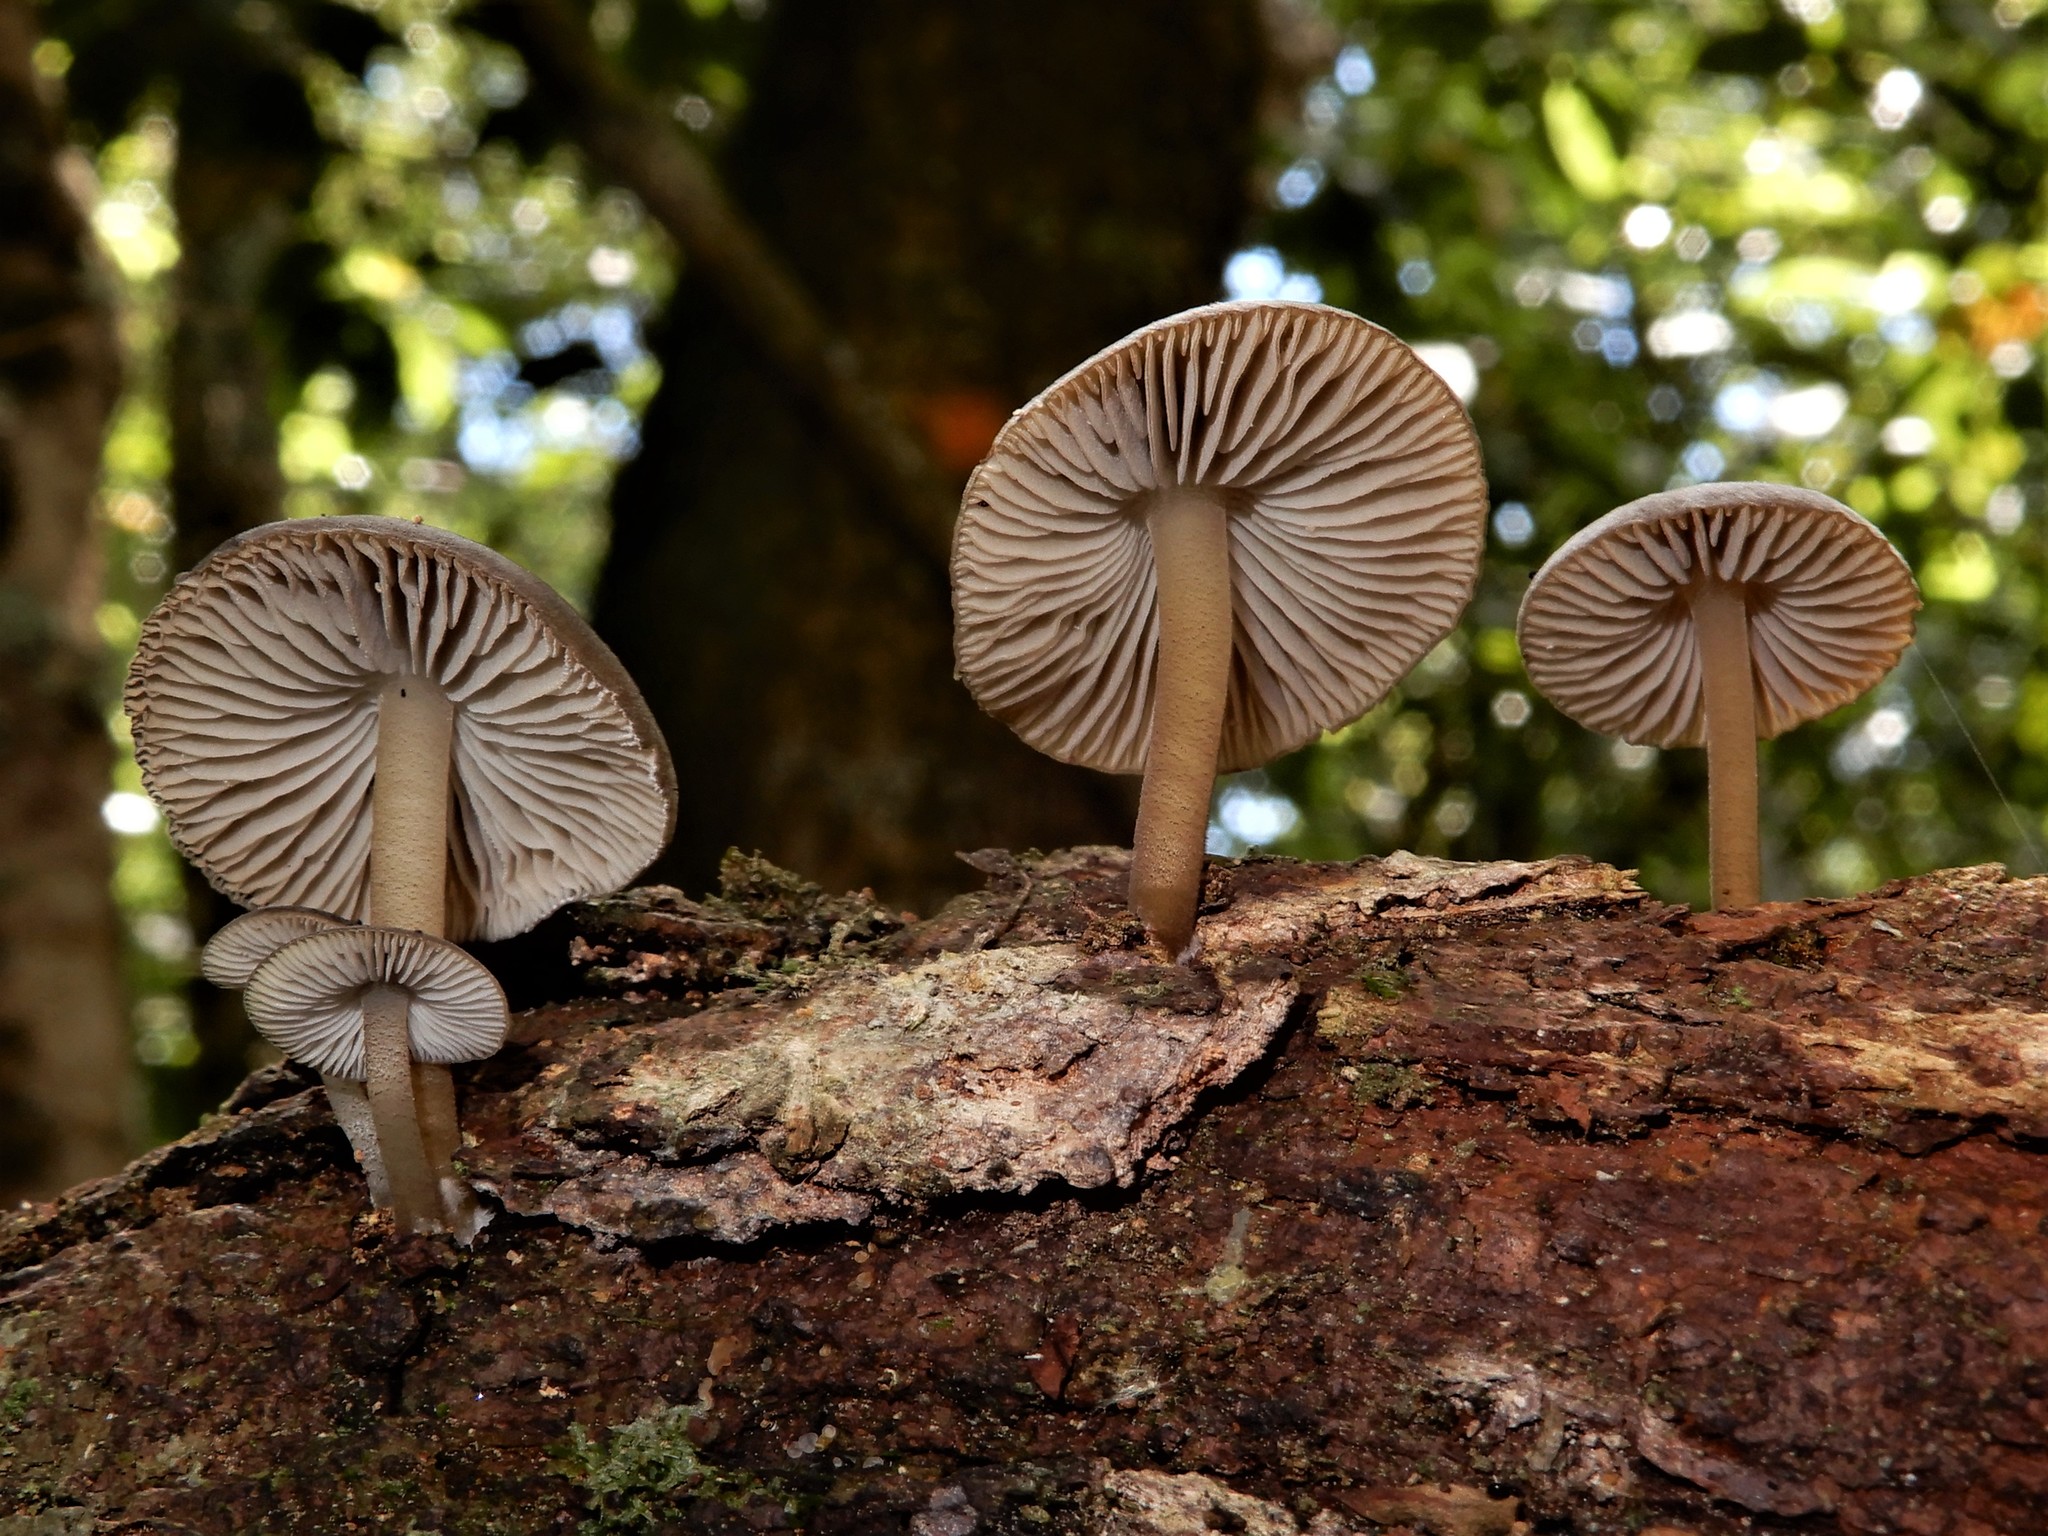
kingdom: Fungi
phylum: Basidiomycota
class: Agaricomycetes
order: Agaricales
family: Porotheleaceae
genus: Pseudohydropus
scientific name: Pseudohydropus commenticius
